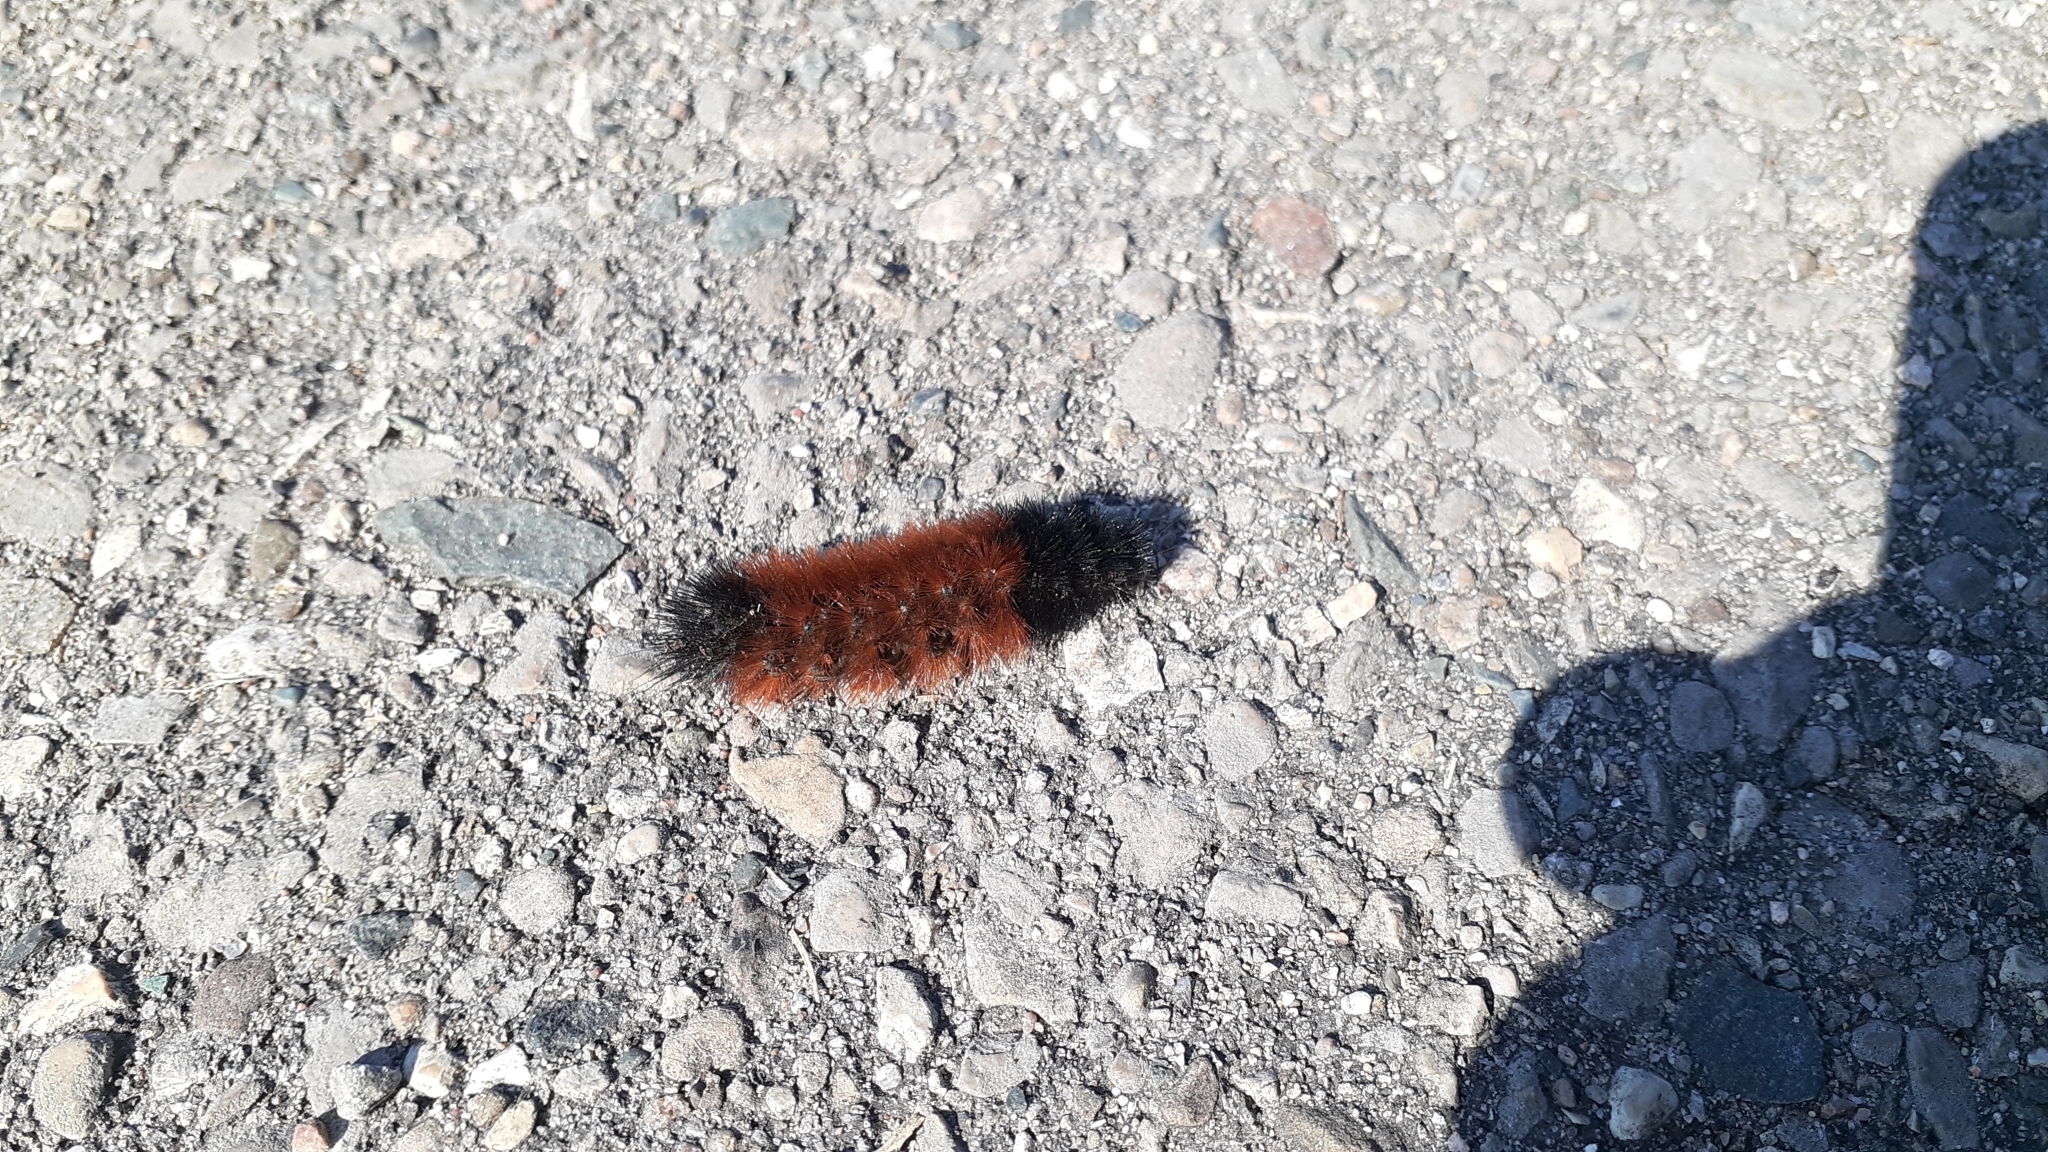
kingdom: Animalia
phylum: Arthropoda
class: Insecta
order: Lepidoptera
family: Erebidae
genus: Pyrrharctia
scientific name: Pyrrharctia isabella
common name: Isabella tiger moth
